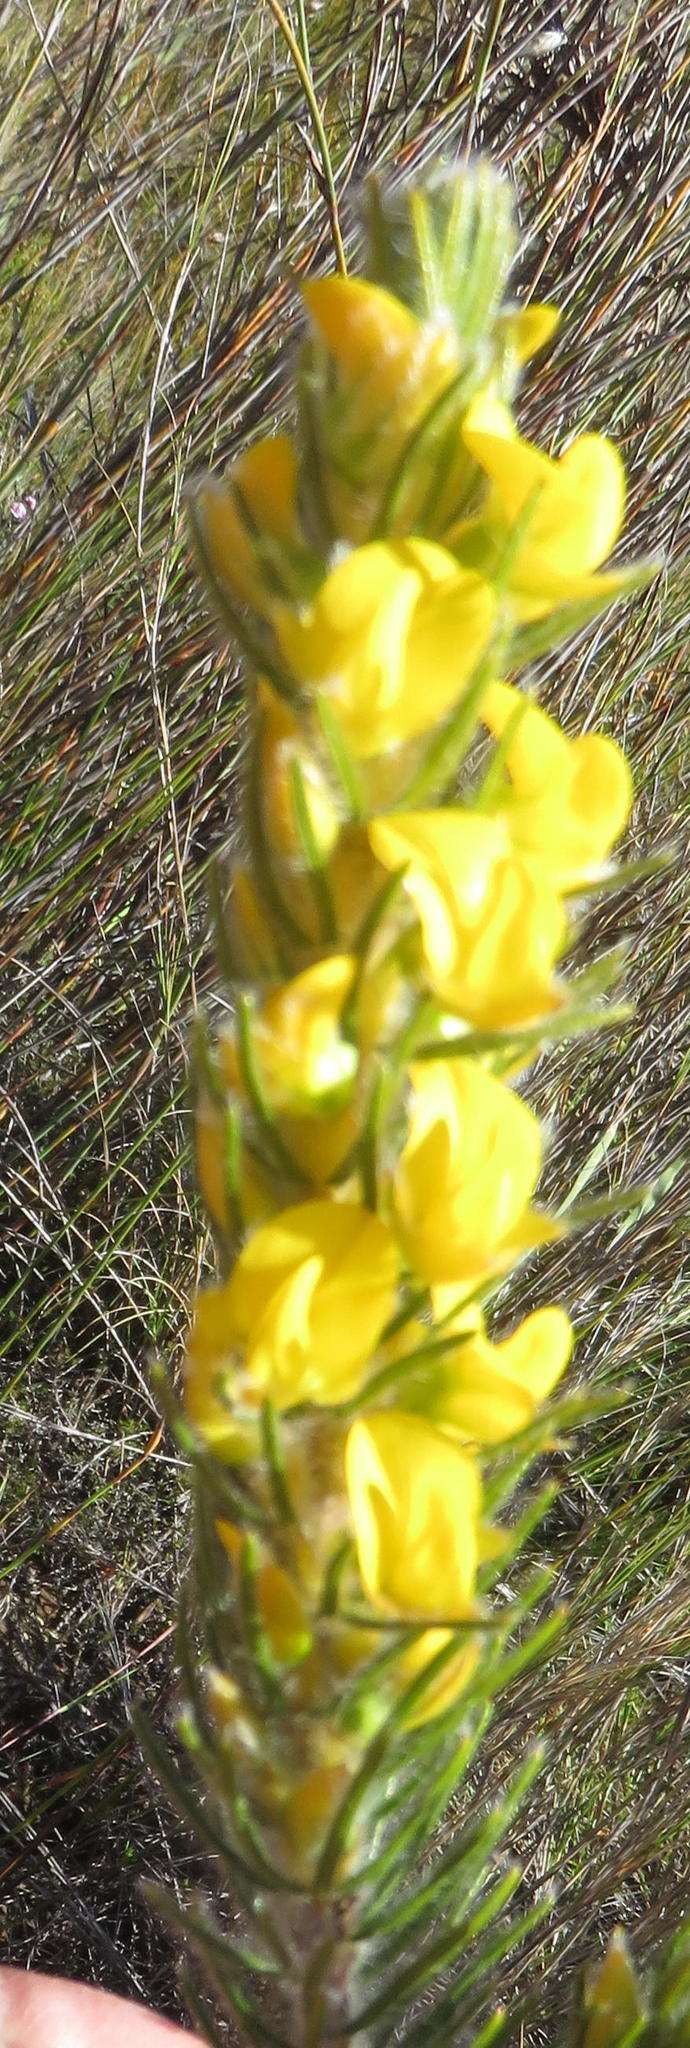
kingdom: Plantae
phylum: Tracheophyta
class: Magnoliopsida
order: Fabales
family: Fabaceae
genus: Cyclopia
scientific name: Cyclopia alopecuroides
